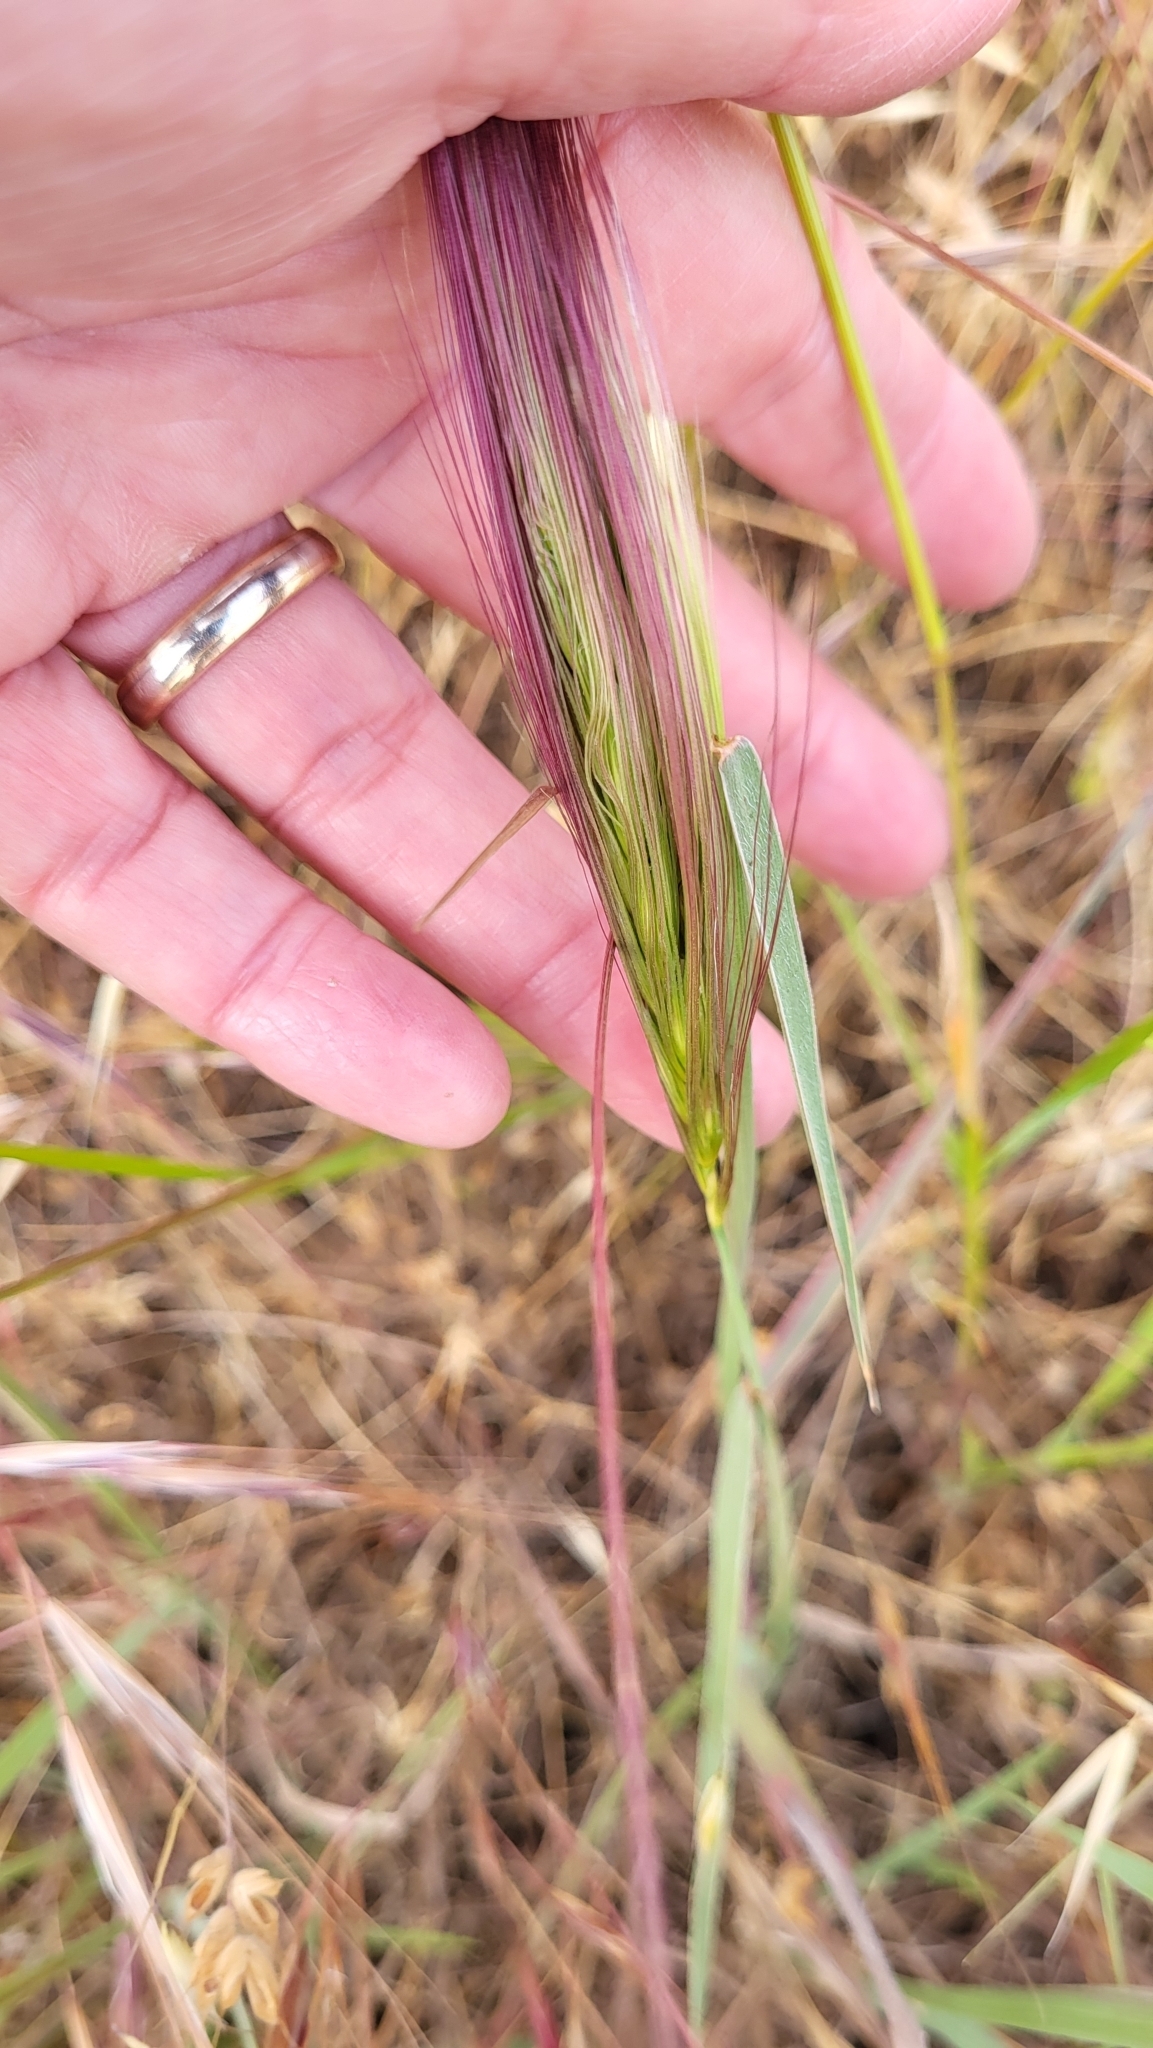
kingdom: Plantae
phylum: Tracheophyta
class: Liliopsida
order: Poales
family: Poaceae
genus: Elymus
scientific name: Elymus multisetus
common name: Big squirreltail
